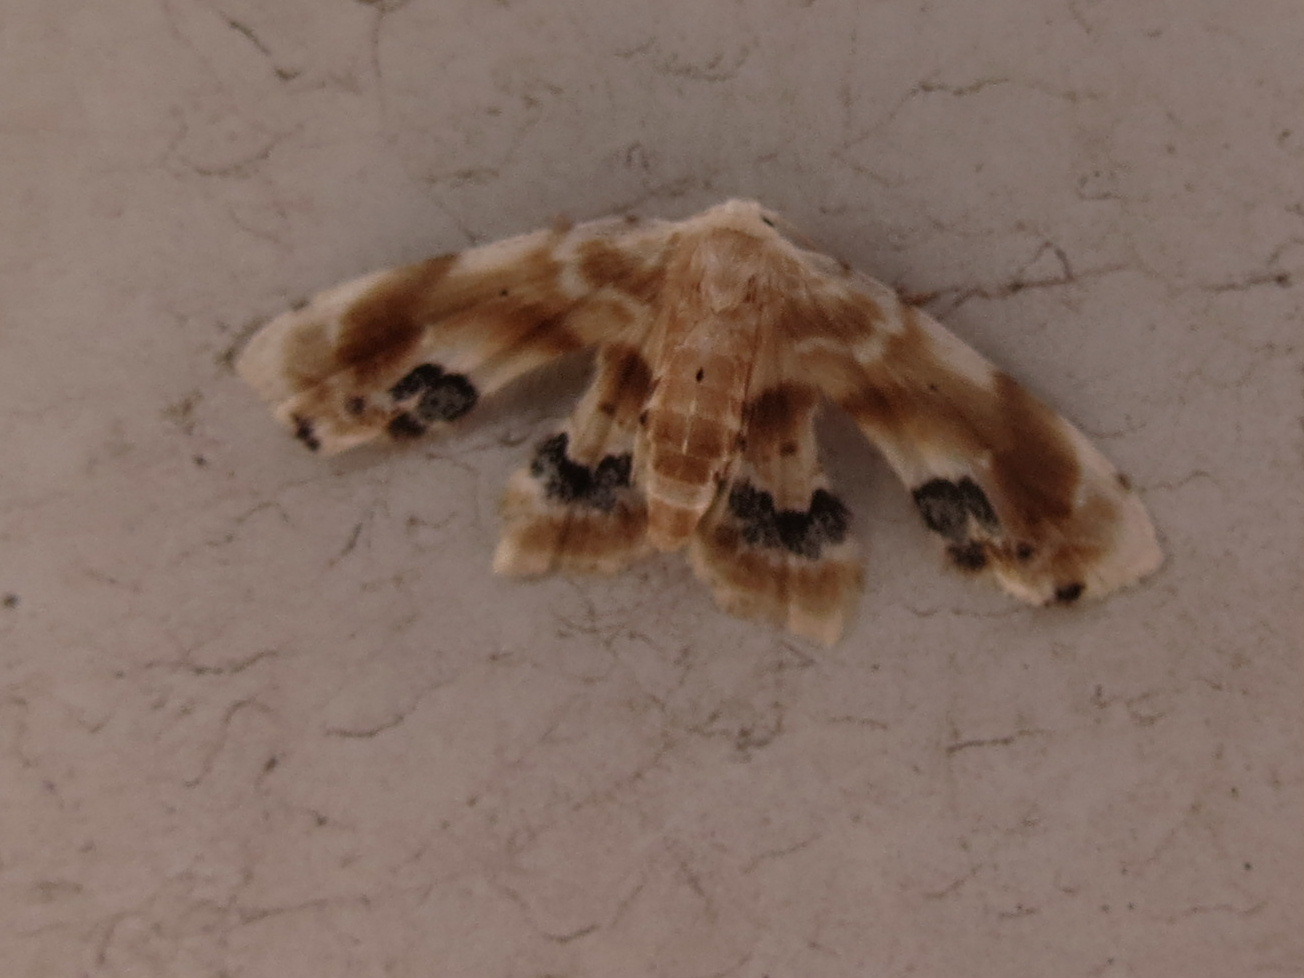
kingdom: Animalia
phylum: Arthropoda
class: Insecta
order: Lepidoptera
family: Noctuidae
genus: Holocryptis
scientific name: Holocryptis phasianura
